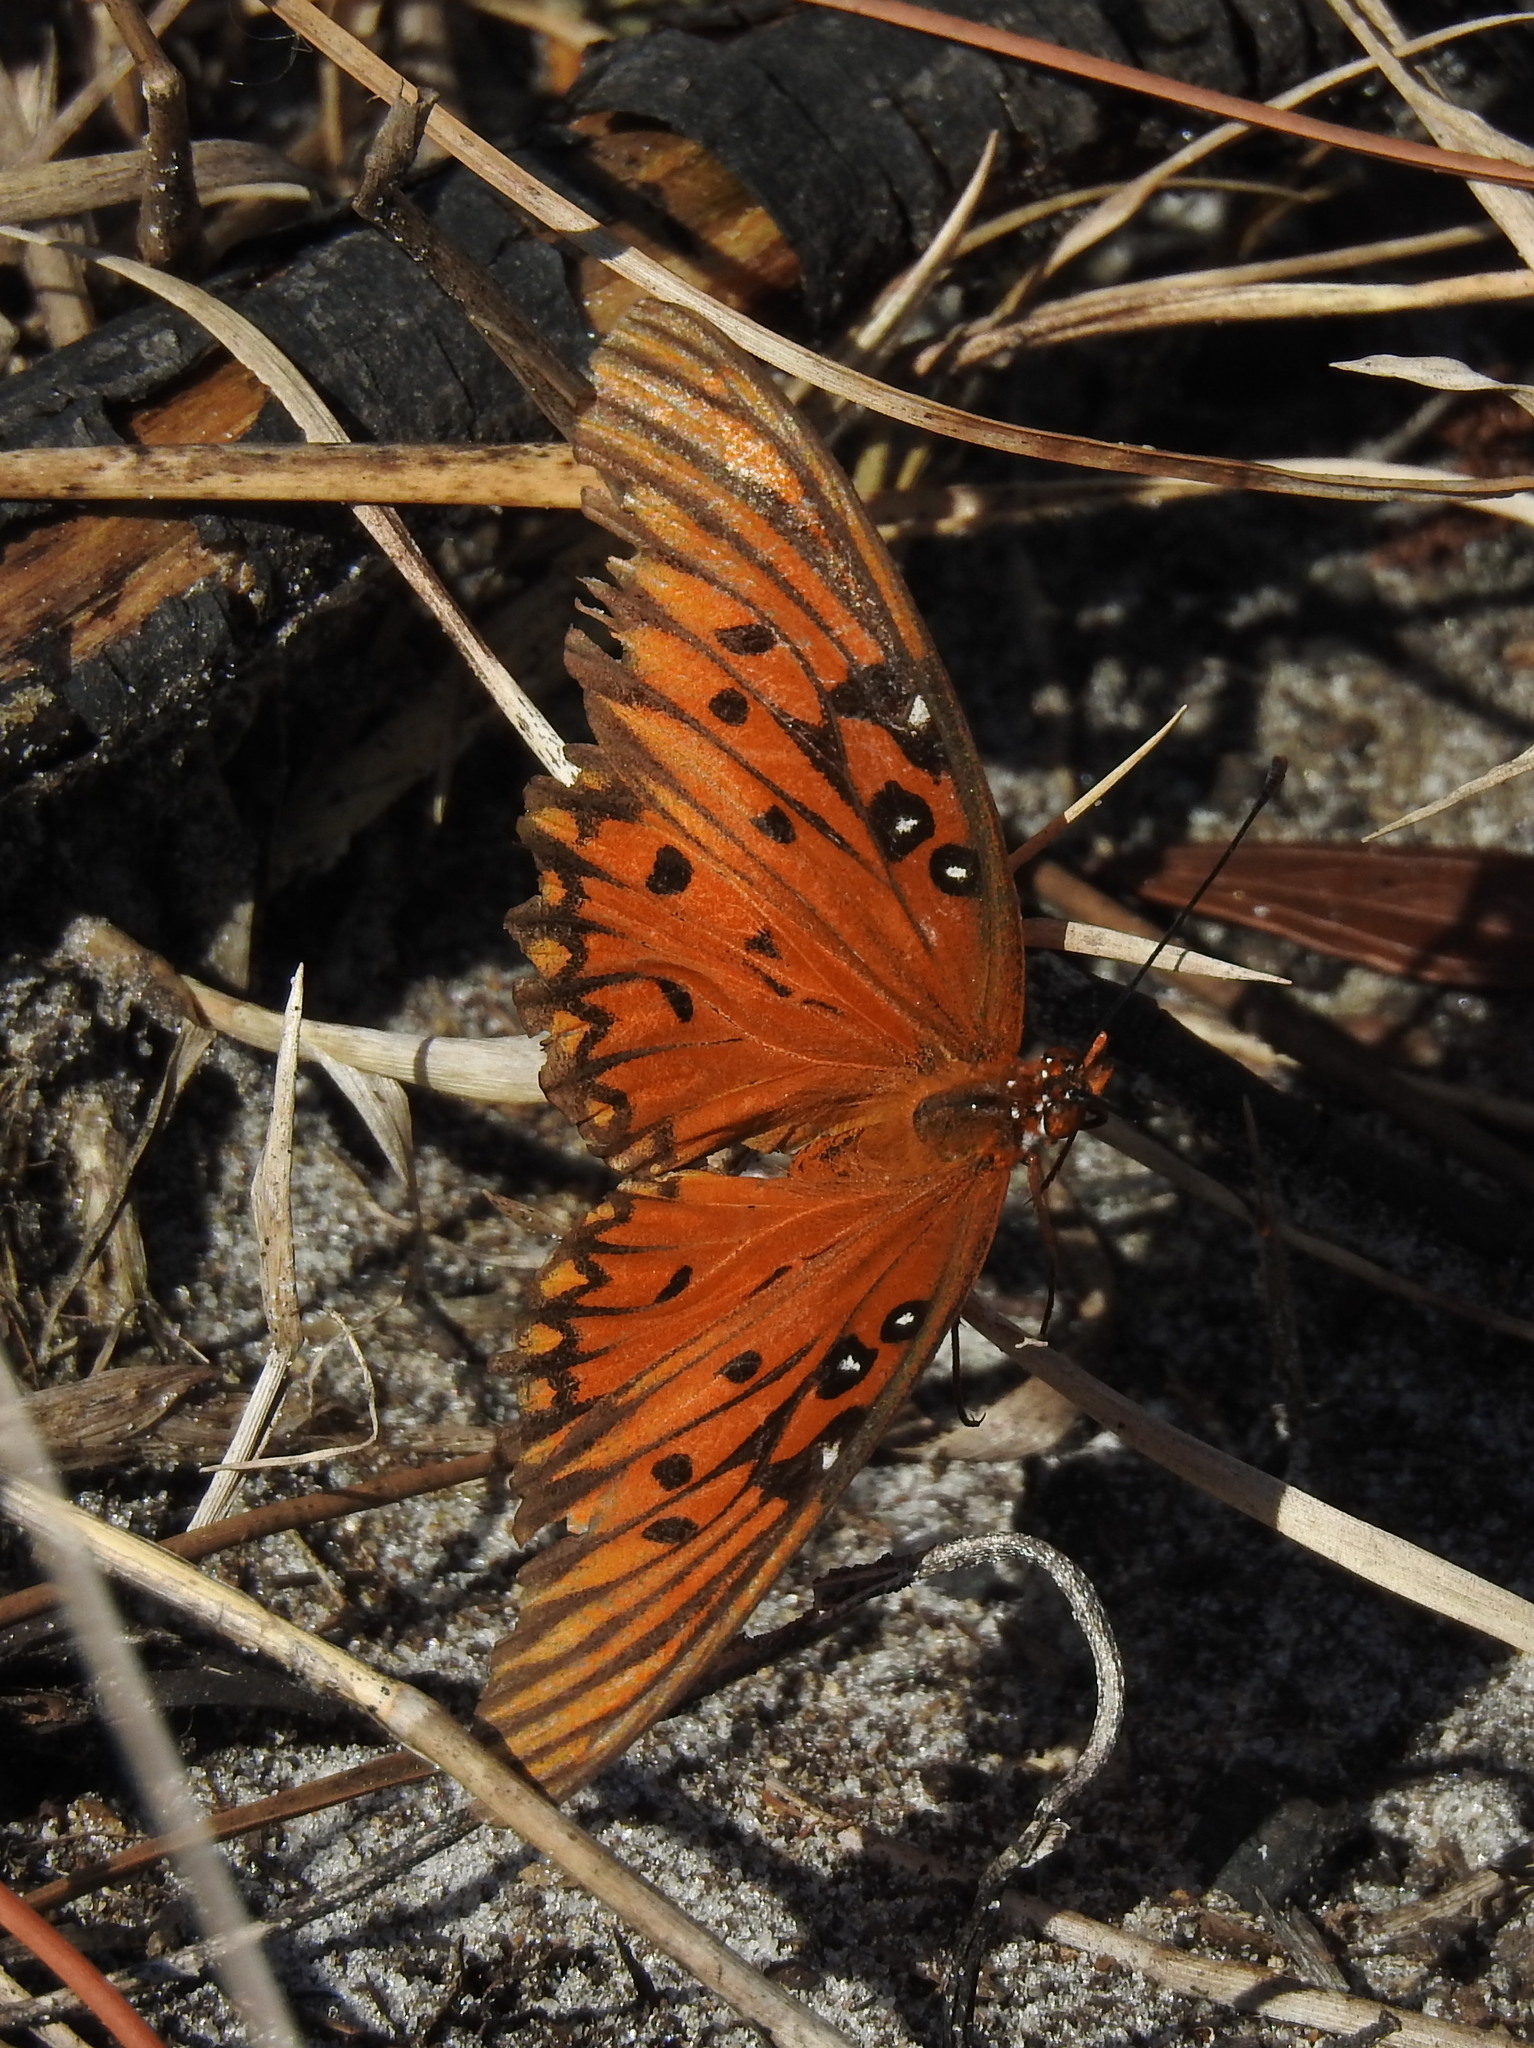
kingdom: Animalia
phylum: Arthropoda
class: Insecta
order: Lepidoptera
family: Nymphalidae
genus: Dione
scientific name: Dione vanillae
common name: Gulf fritillary
